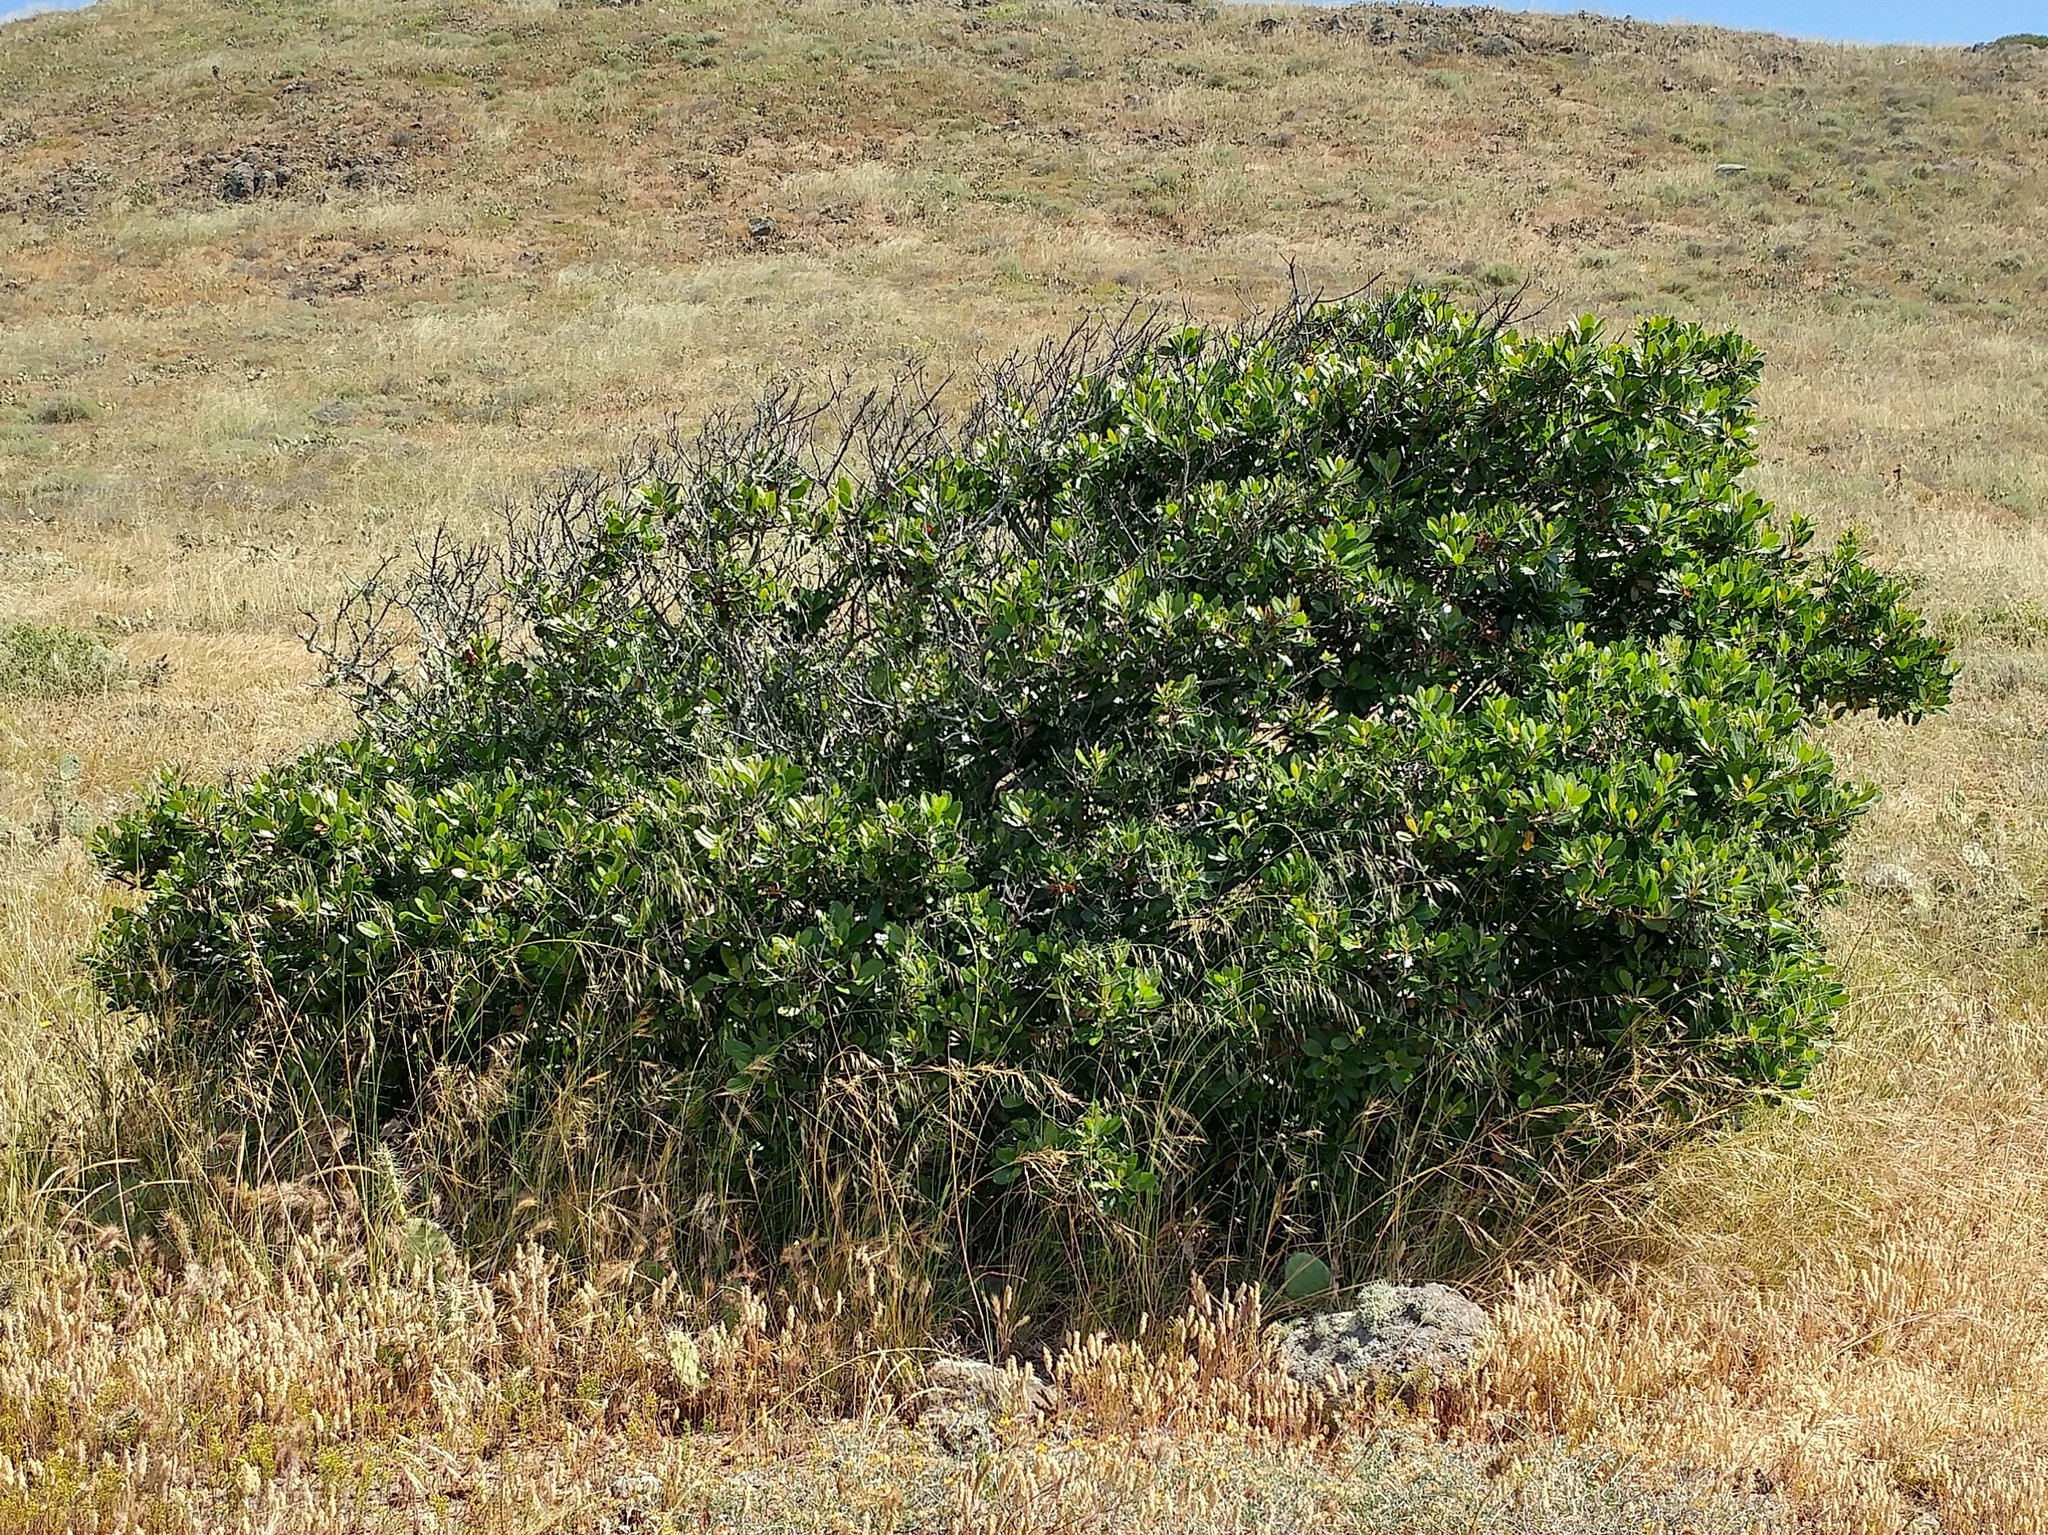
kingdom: Plantae
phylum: Tracheophyta
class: Magnoliopsida
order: Rosales
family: Rosaceae
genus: Heteromeles
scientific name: Heteromeles arbutifolia
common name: California-holly
